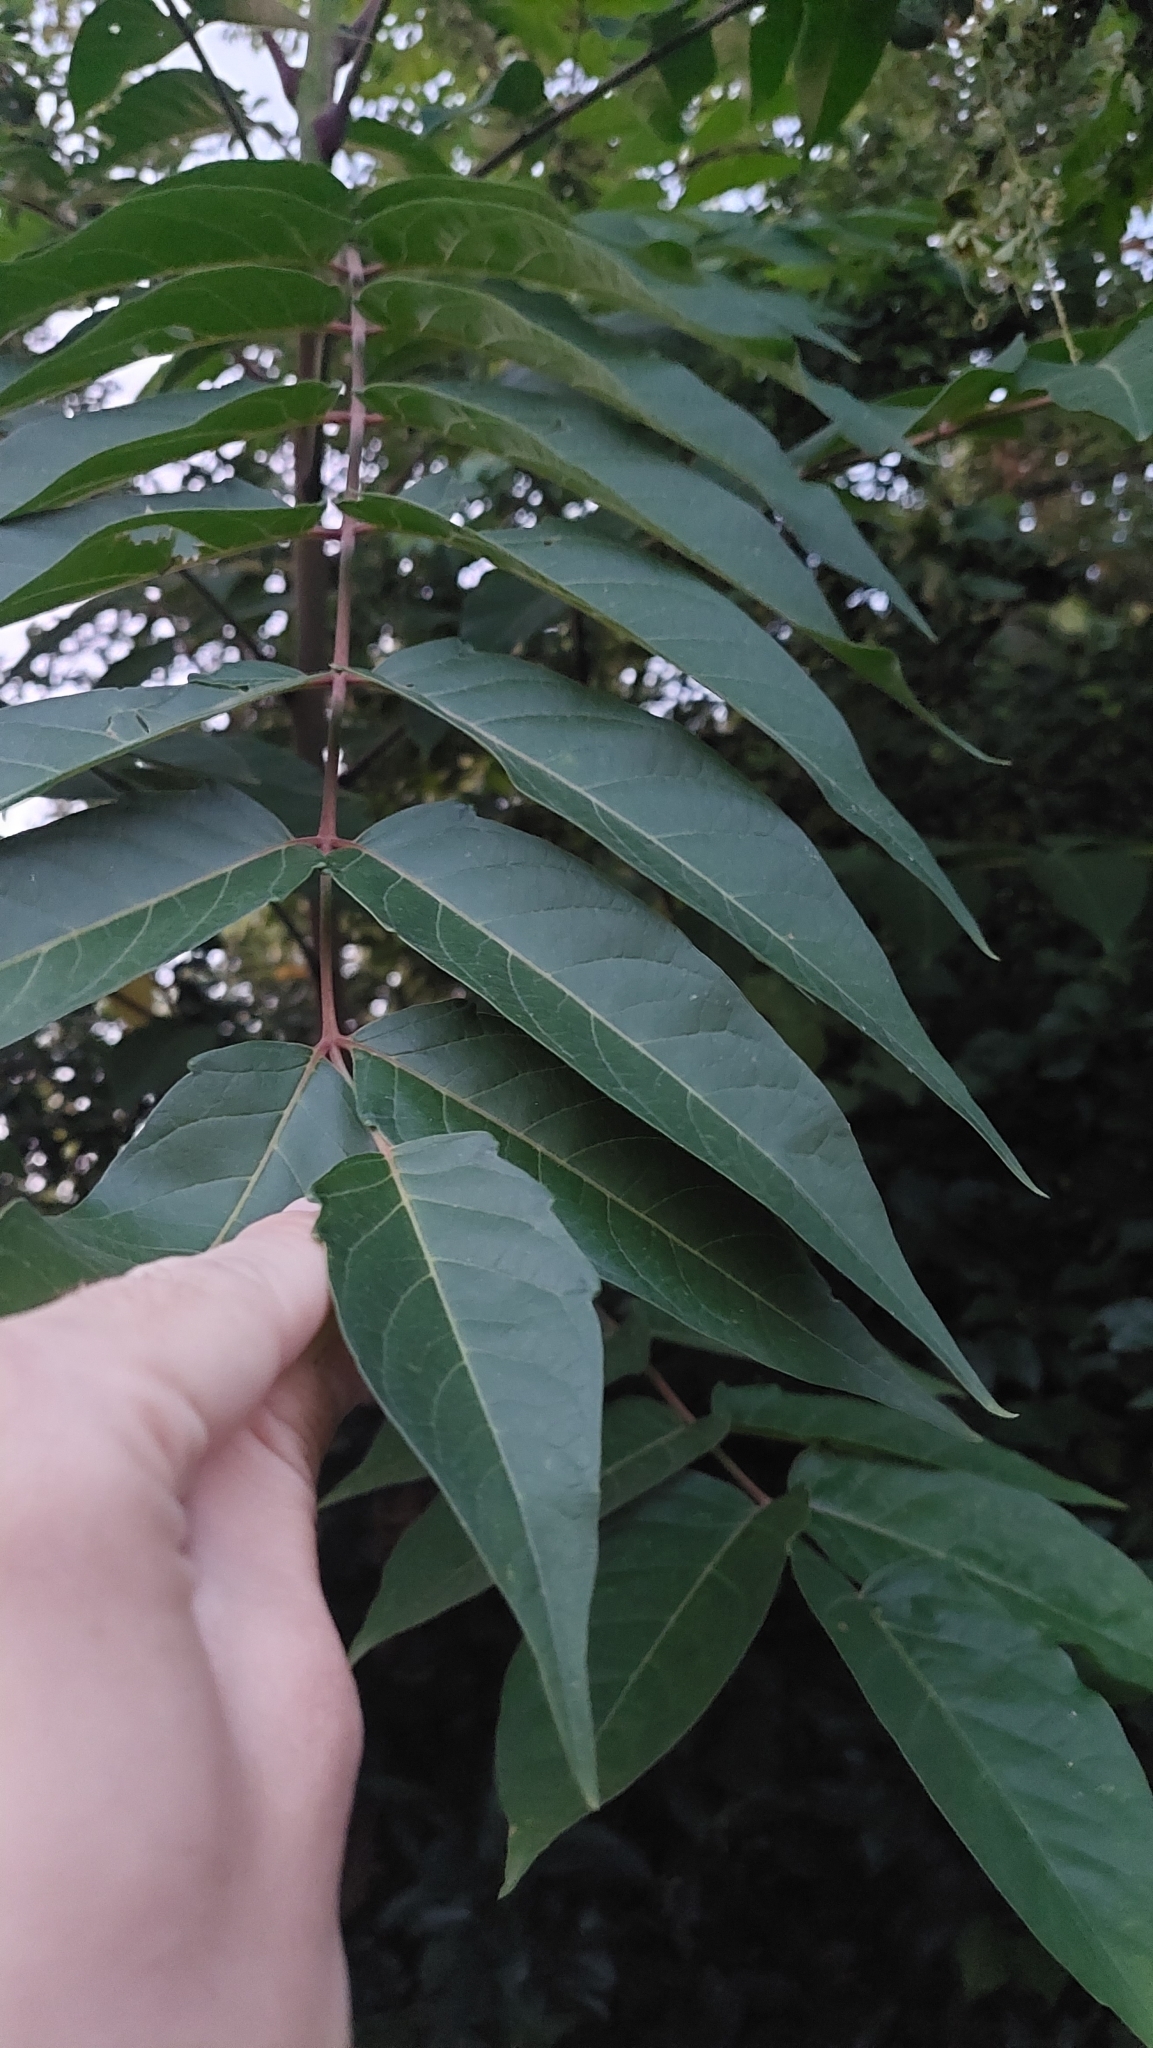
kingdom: Plantae
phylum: Tracheophyta
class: Magnoliopsida
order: Sapindales
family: Simaroubaceae
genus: Ailanthus
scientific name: Ailanthus altissima
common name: Tree-of-heaven
